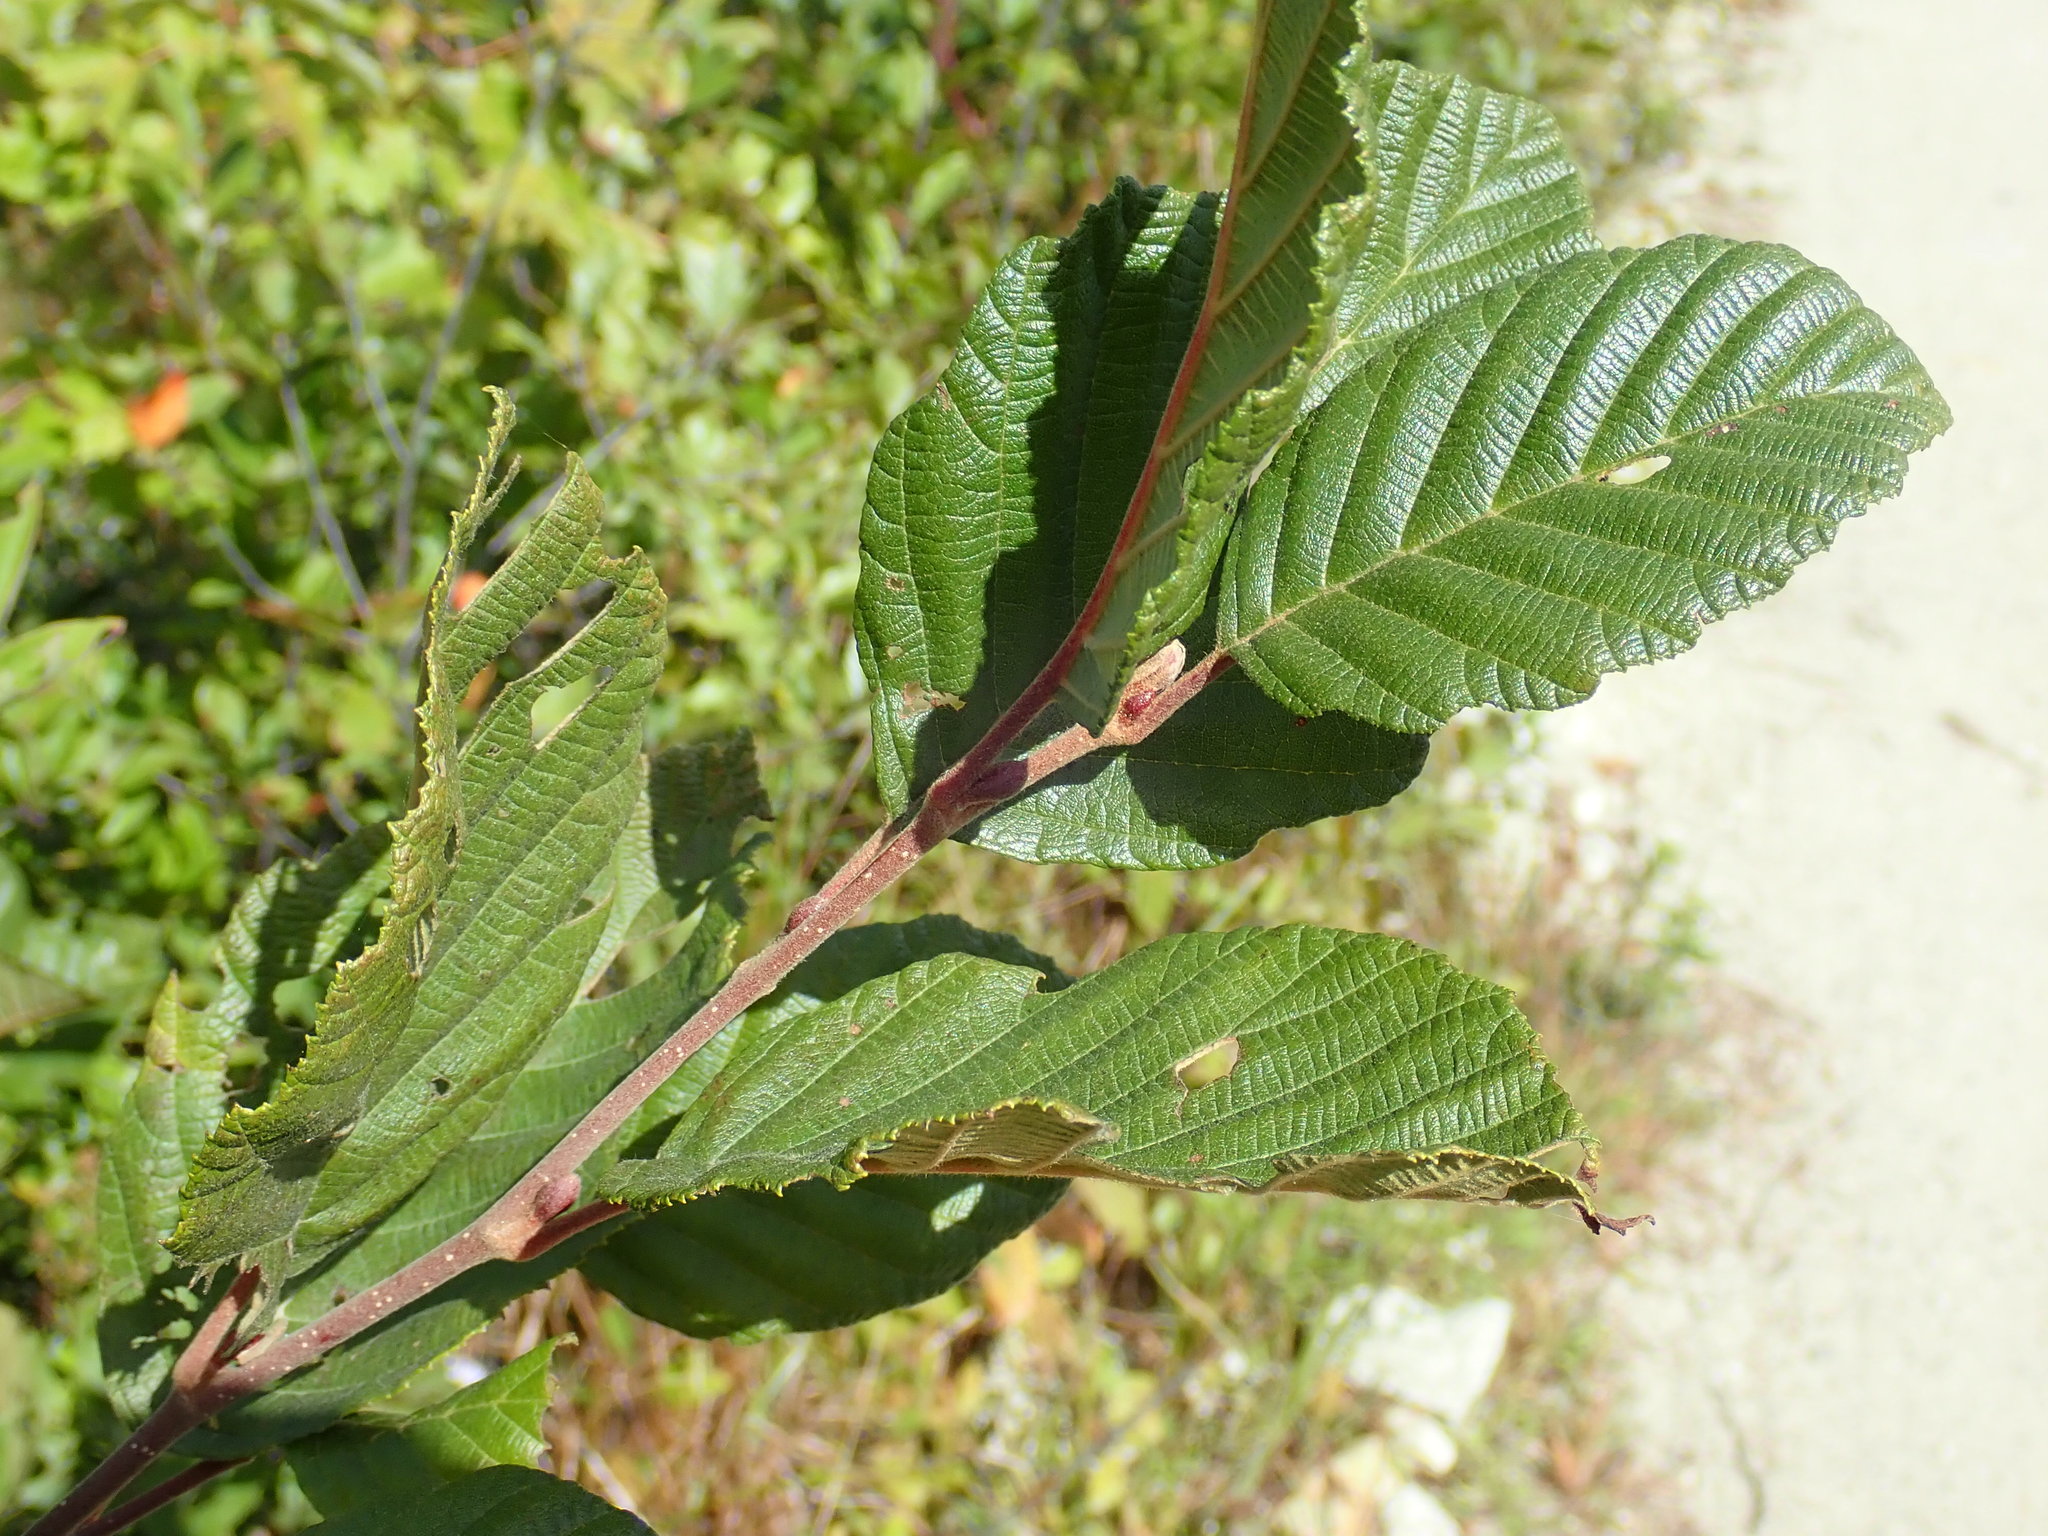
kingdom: Plantae
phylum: Tracheophyta
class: Magnoliopsida
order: Fagales
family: Betulaceae
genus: Alnus
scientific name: Alnus incana
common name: Grey alder
